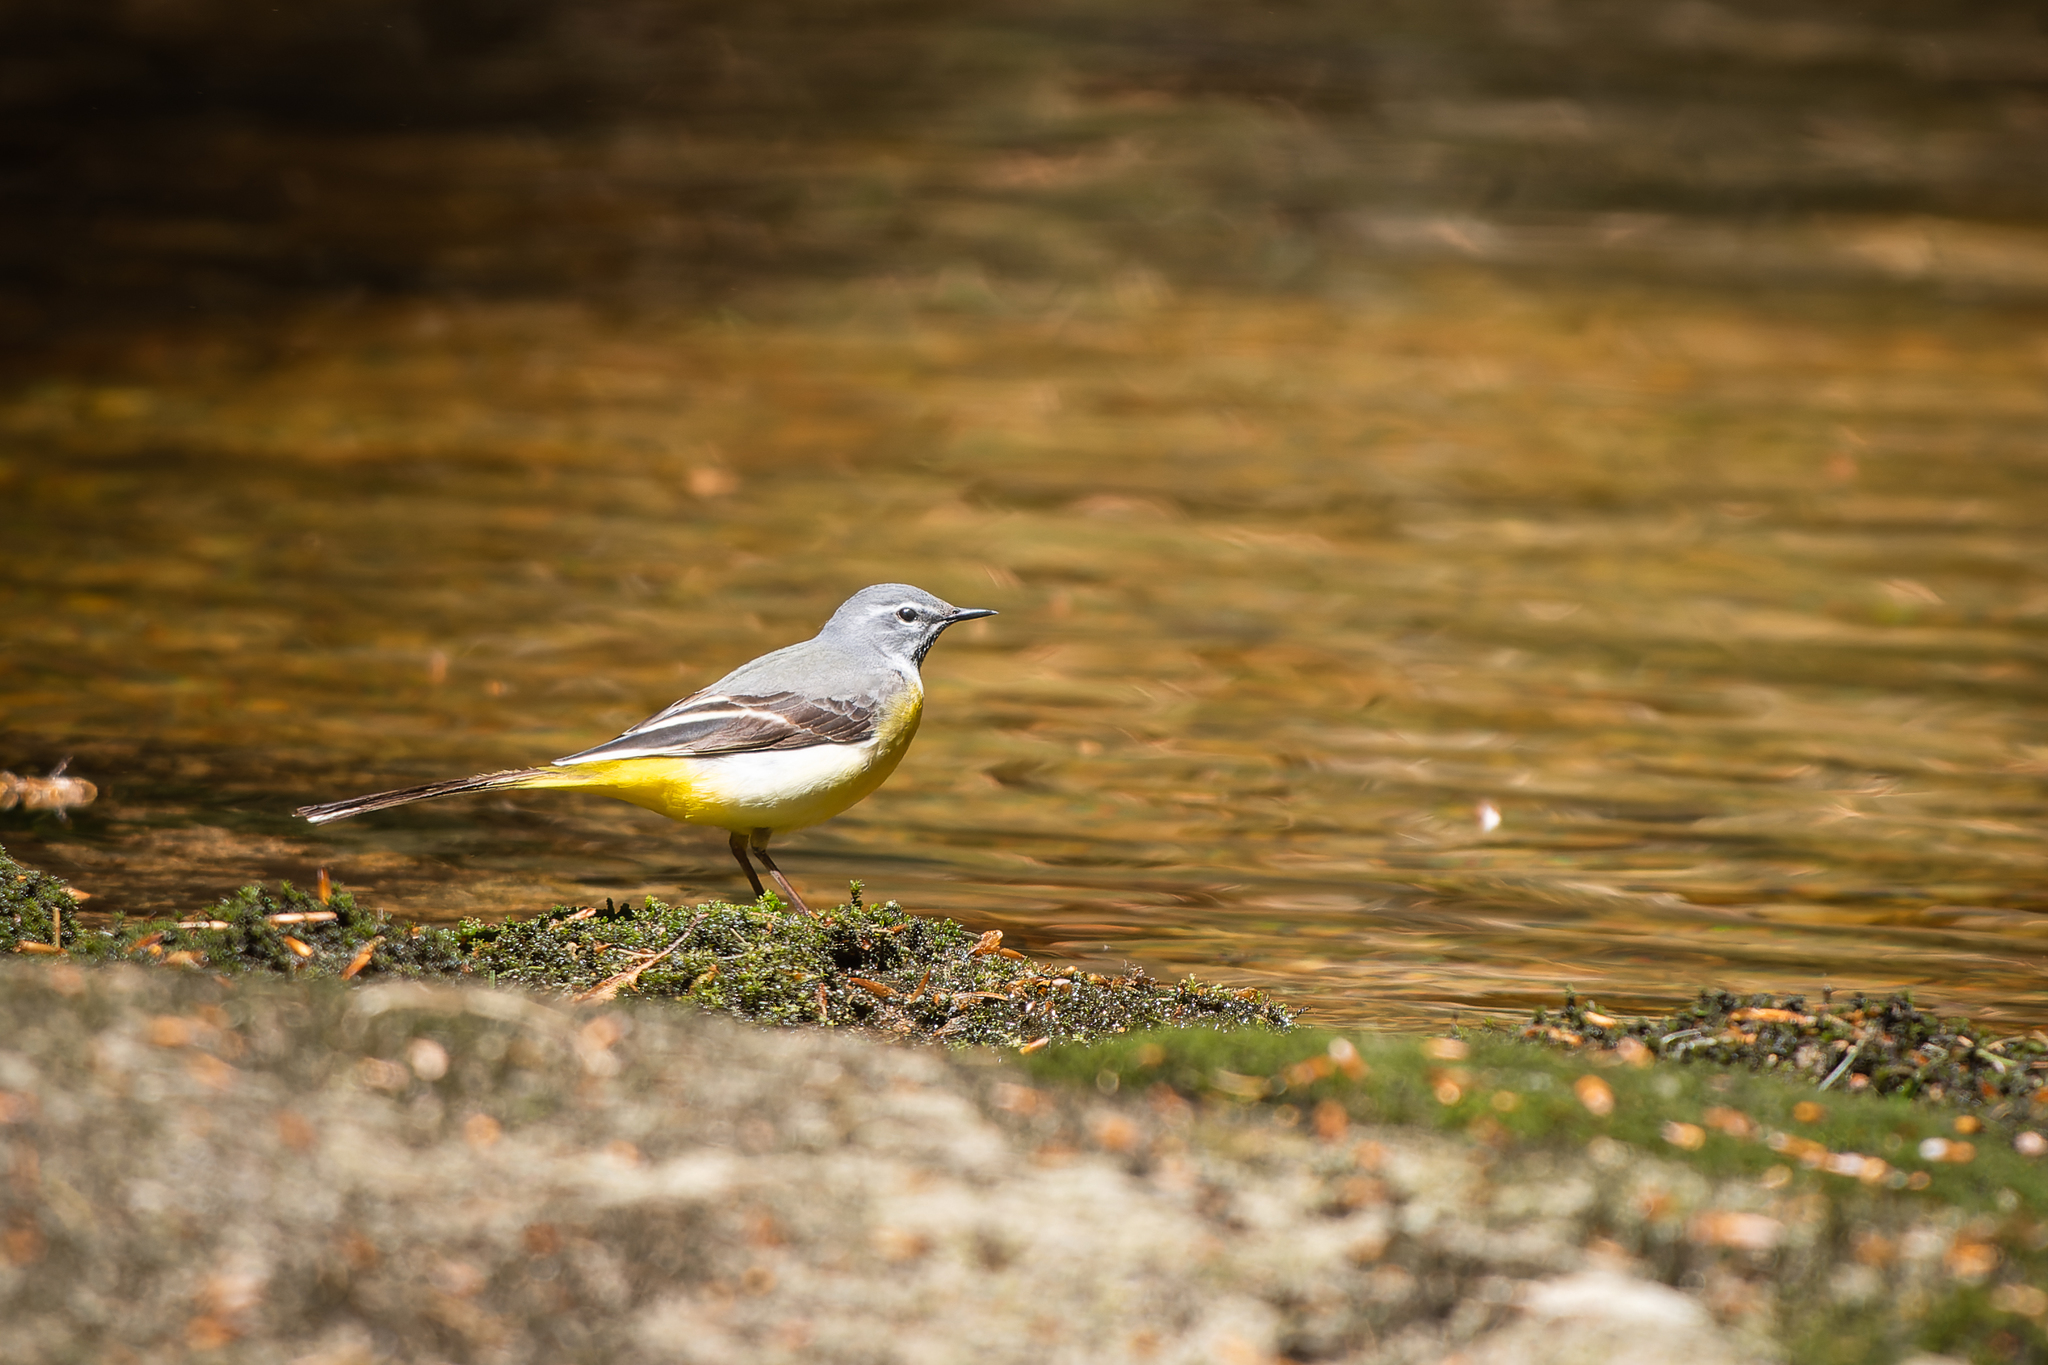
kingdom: Animalia
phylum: Chordata
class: Aves
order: Passeriformes
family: Motacillidae
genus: Motacilla
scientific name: Motacilla cinerea
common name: Grey wagtail
